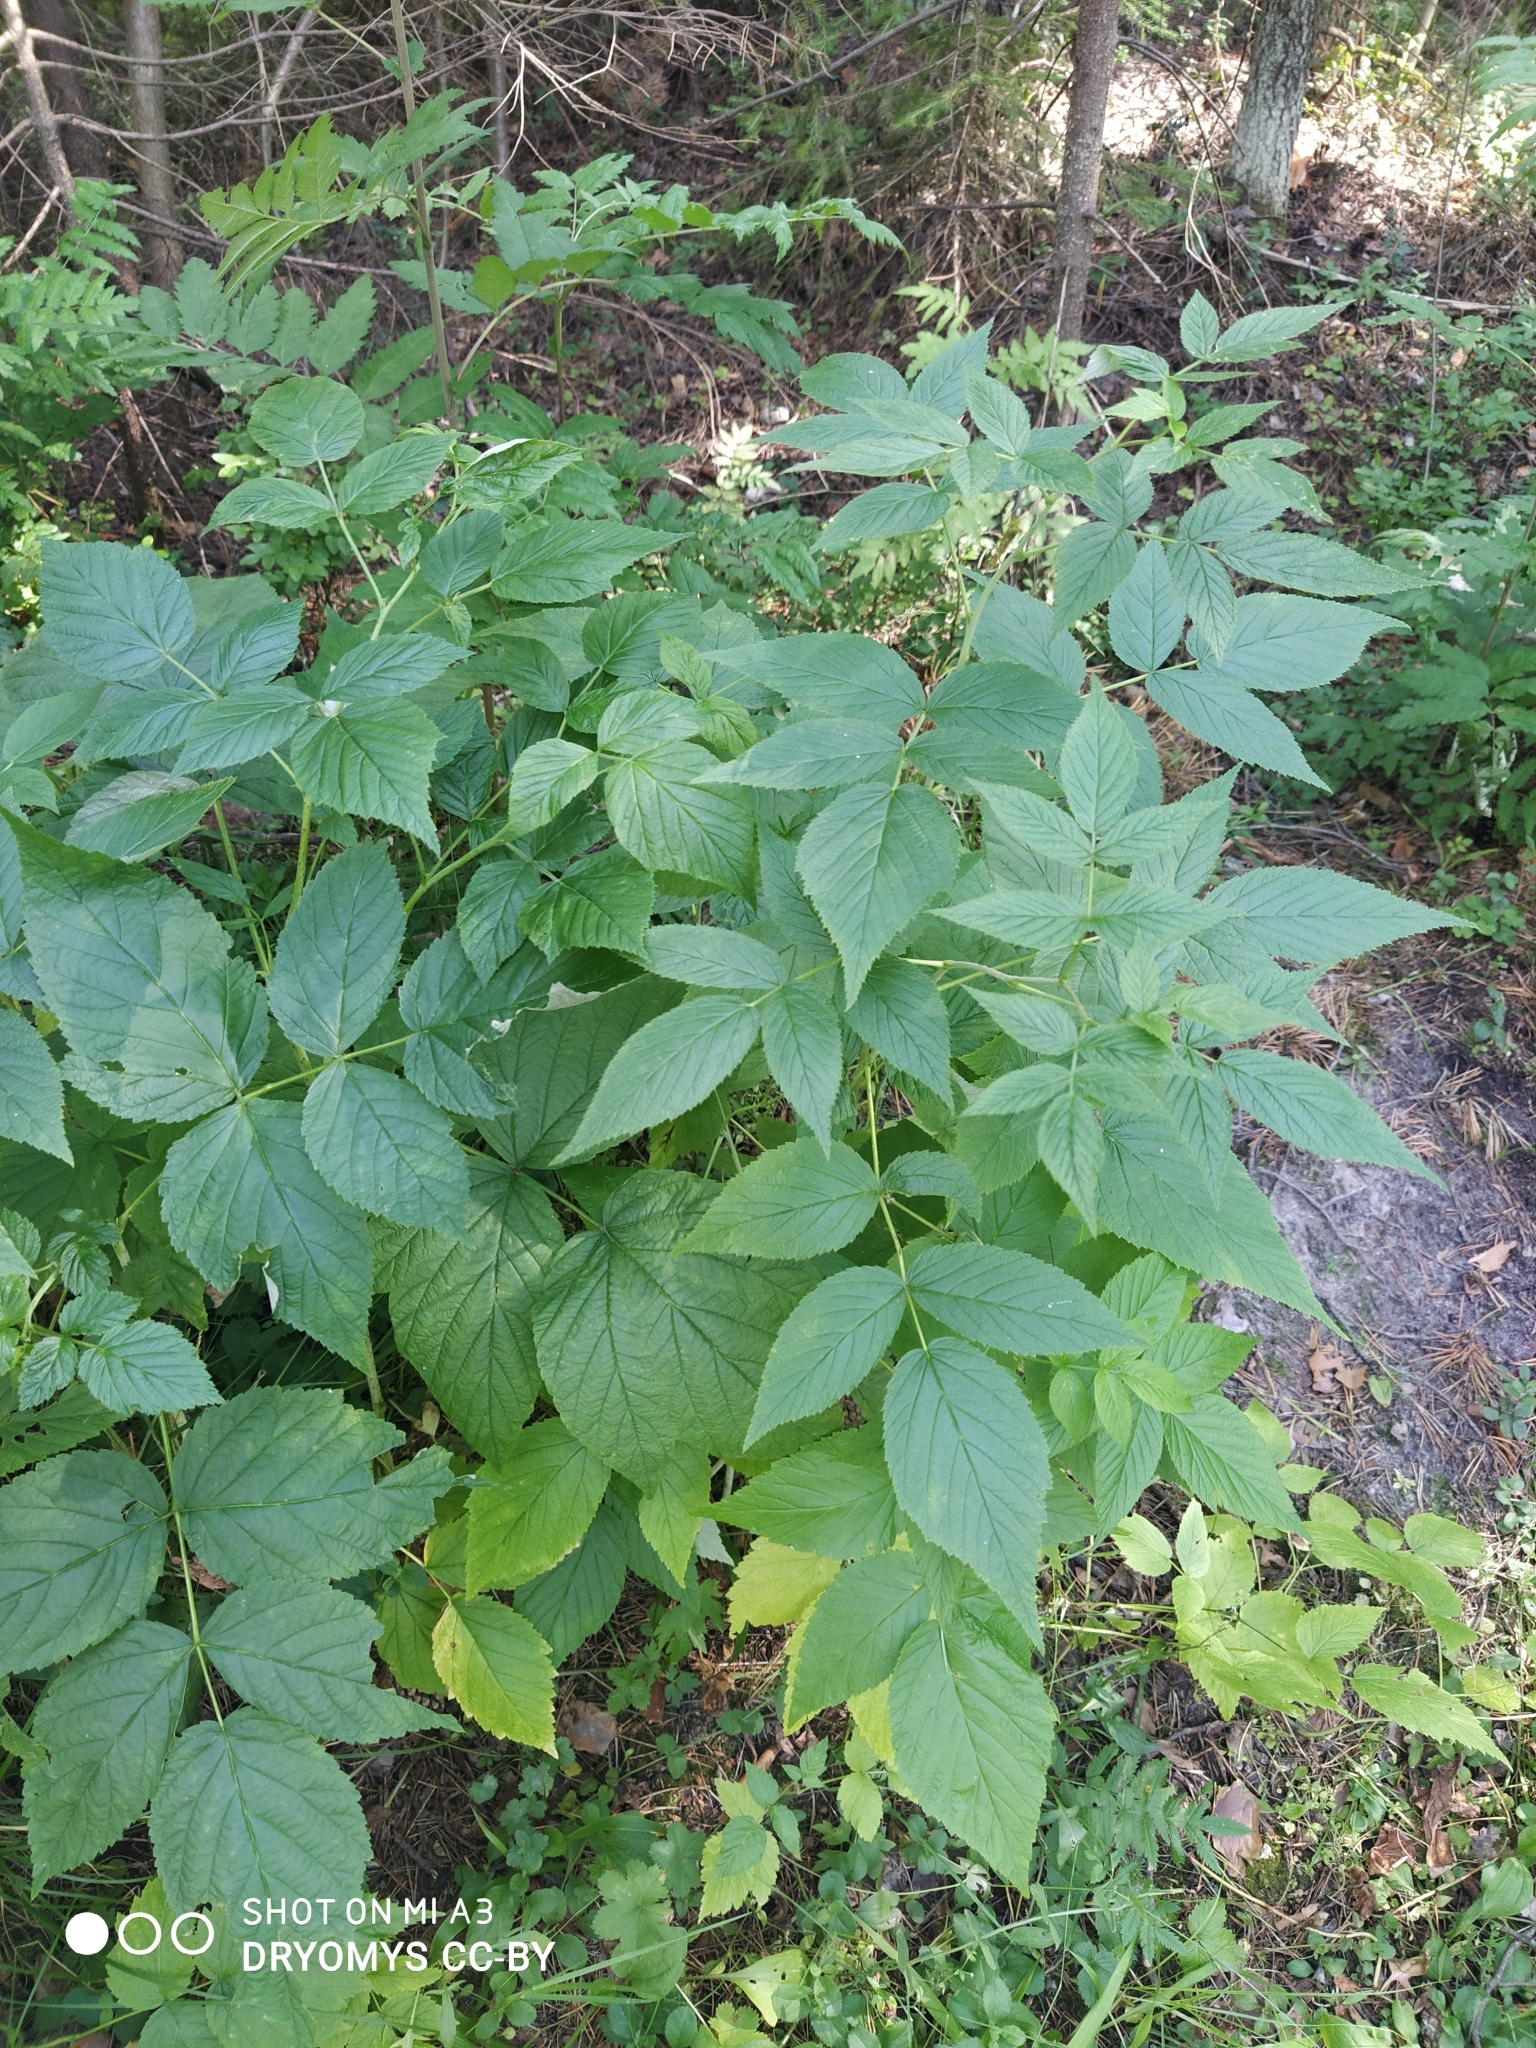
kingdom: Plantae
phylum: Tracheophyta
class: Magnoliopsida
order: Rosales
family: Rosaceae
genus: Rubus
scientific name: Rubus idaeus
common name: Raspberry
